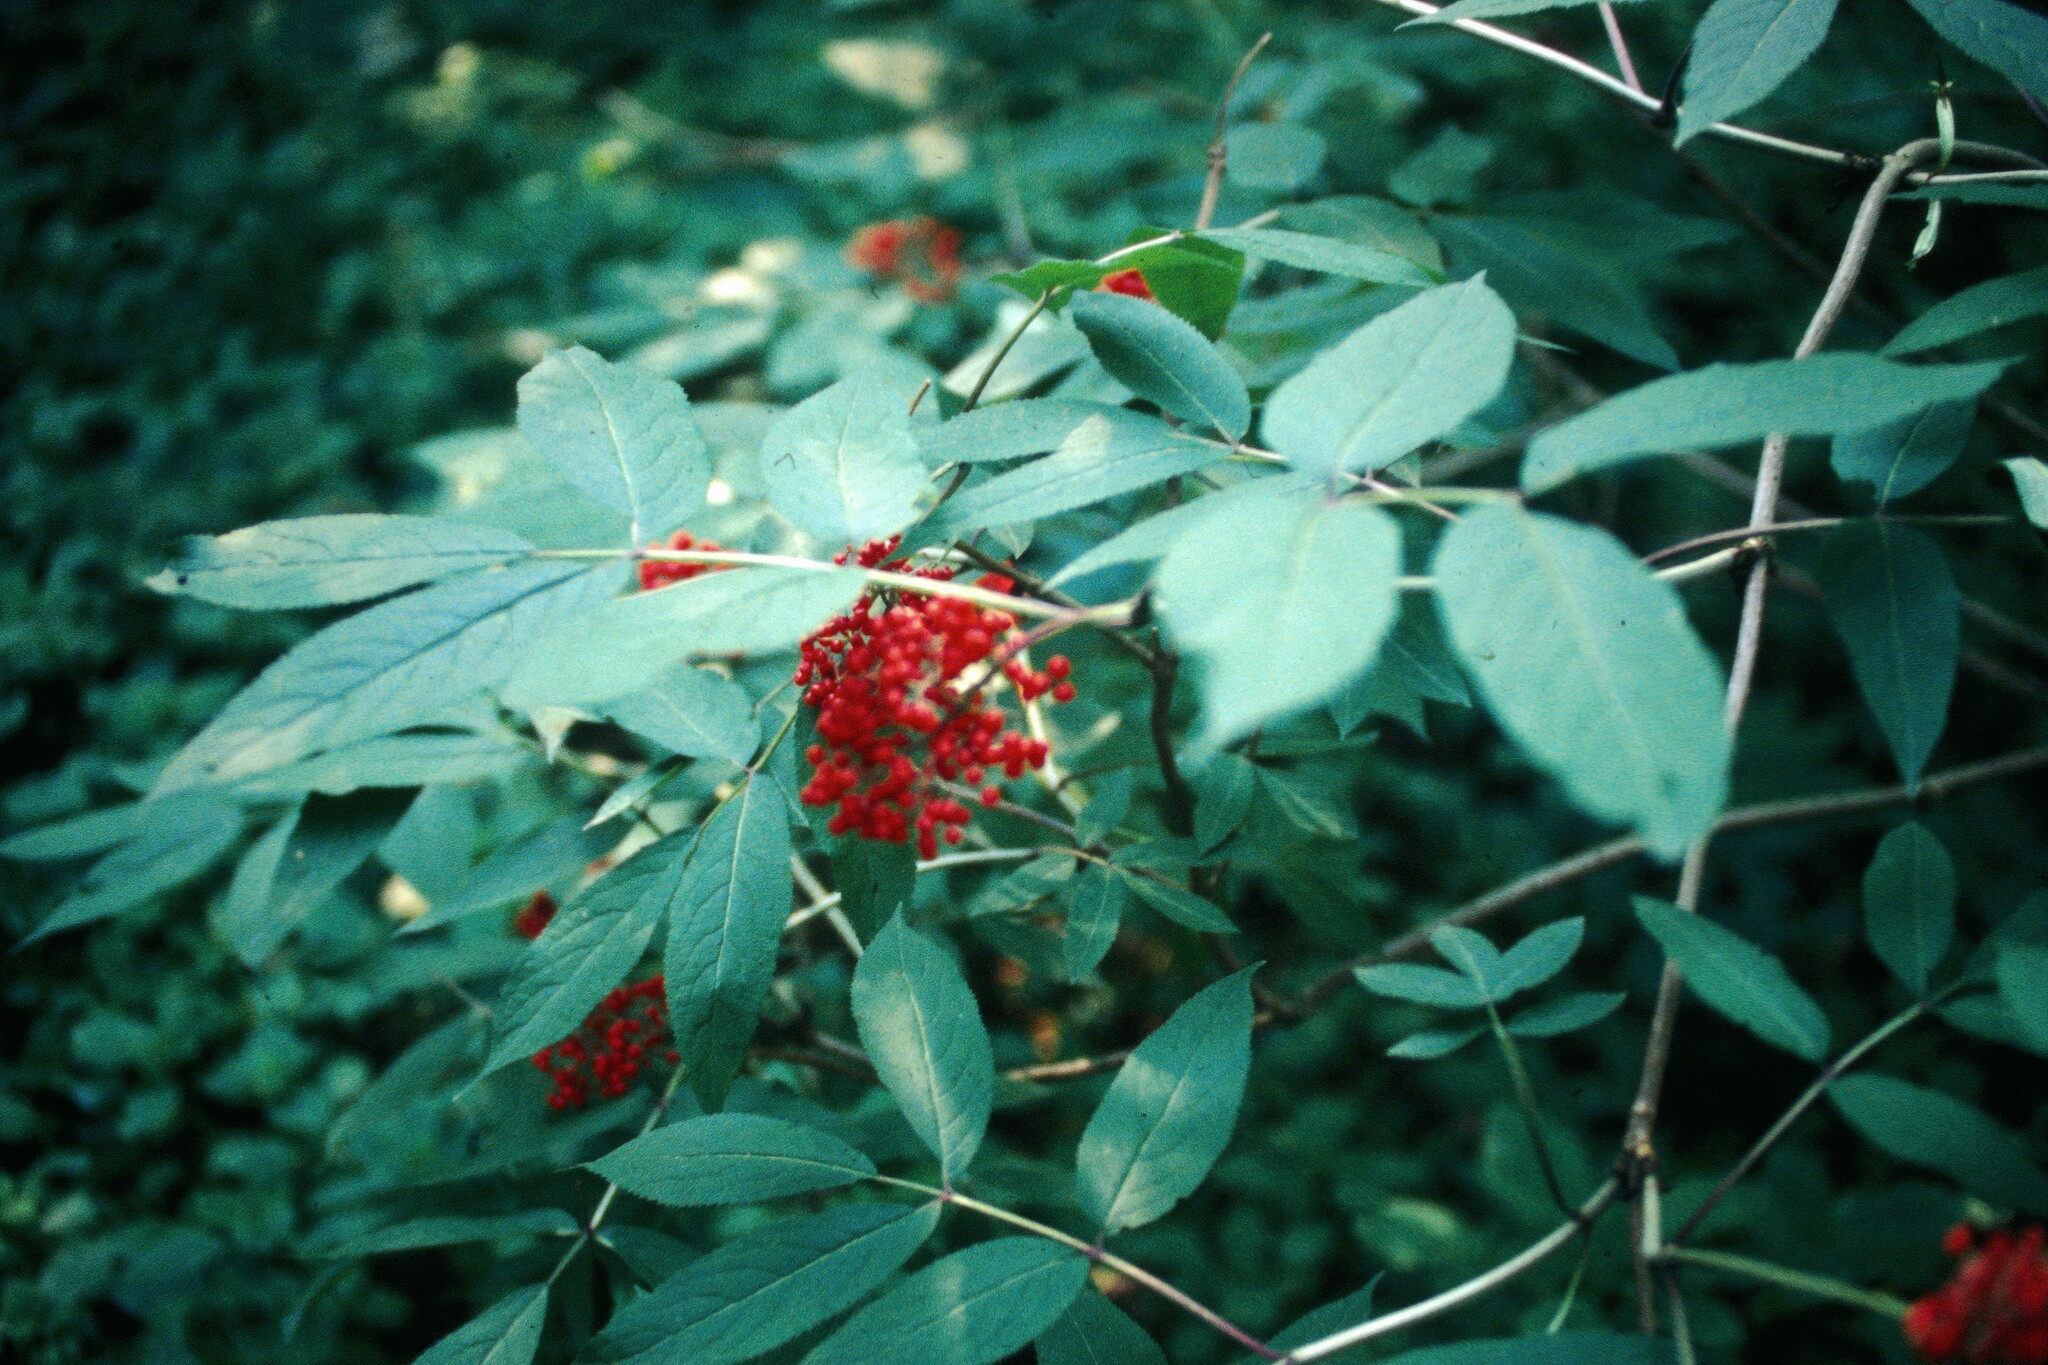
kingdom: Plantae
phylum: Tracheophyta
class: Magnoliopsida
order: Dipsacales
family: Viburnaceae
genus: Sambucus
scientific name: Sambucus racemosa
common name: Red-berried elder
